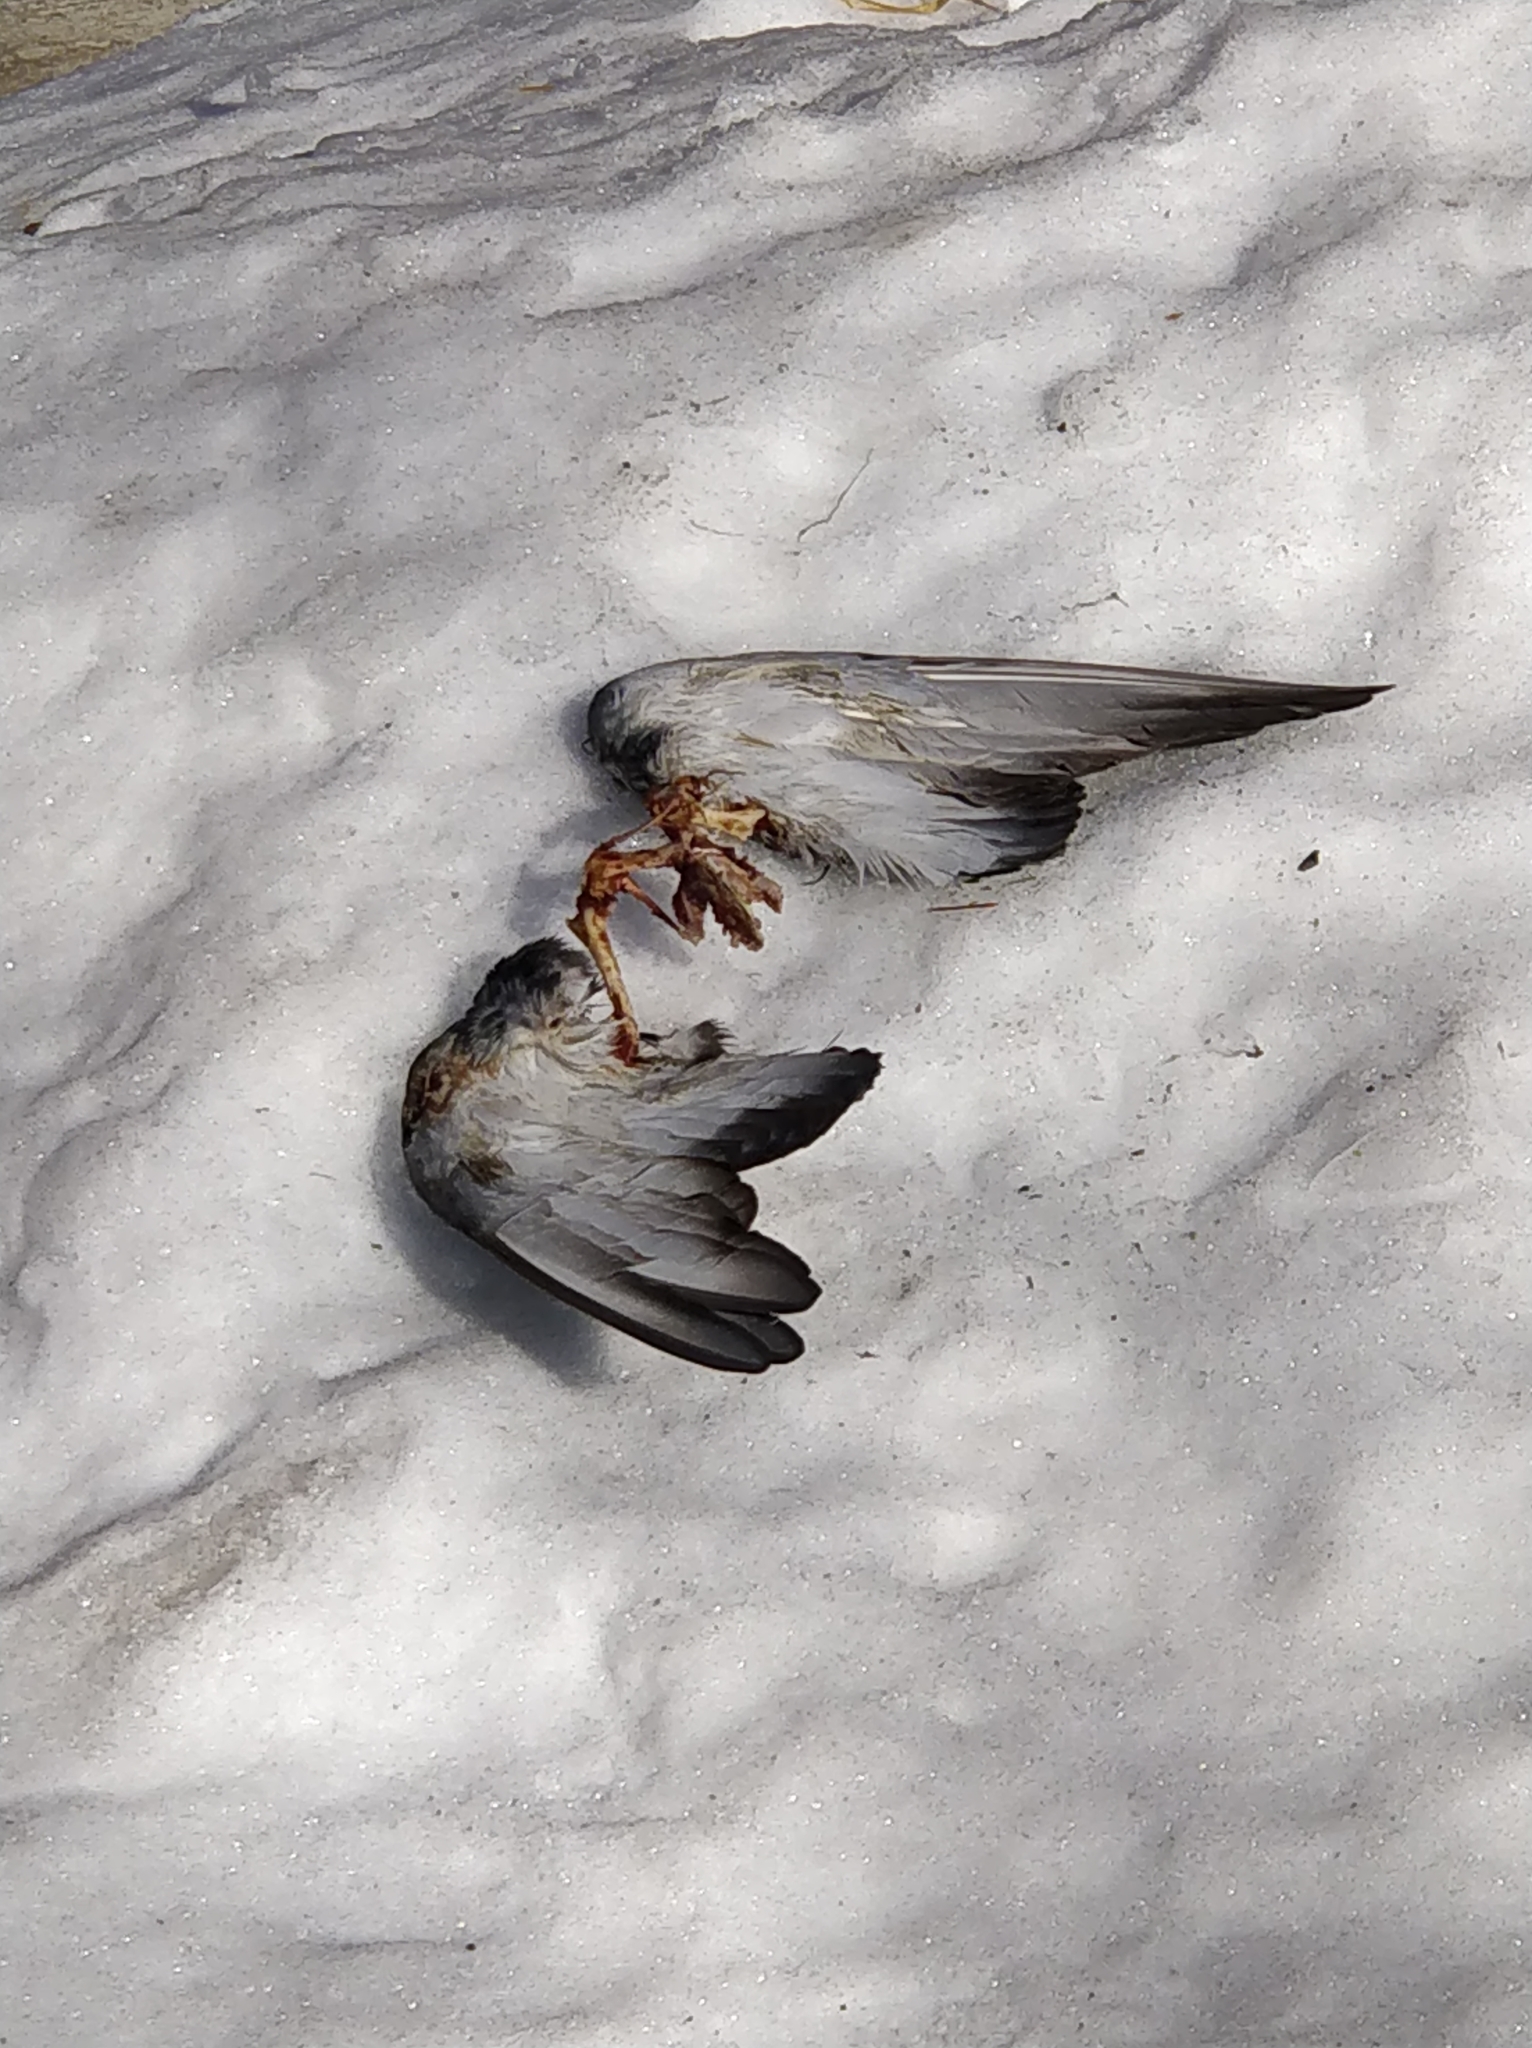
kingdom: Animalia
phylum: Chordata
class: Aves
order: Columbiformes
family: Columbidae
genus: Columba
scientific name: Columba livia
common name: Rock pigeon
